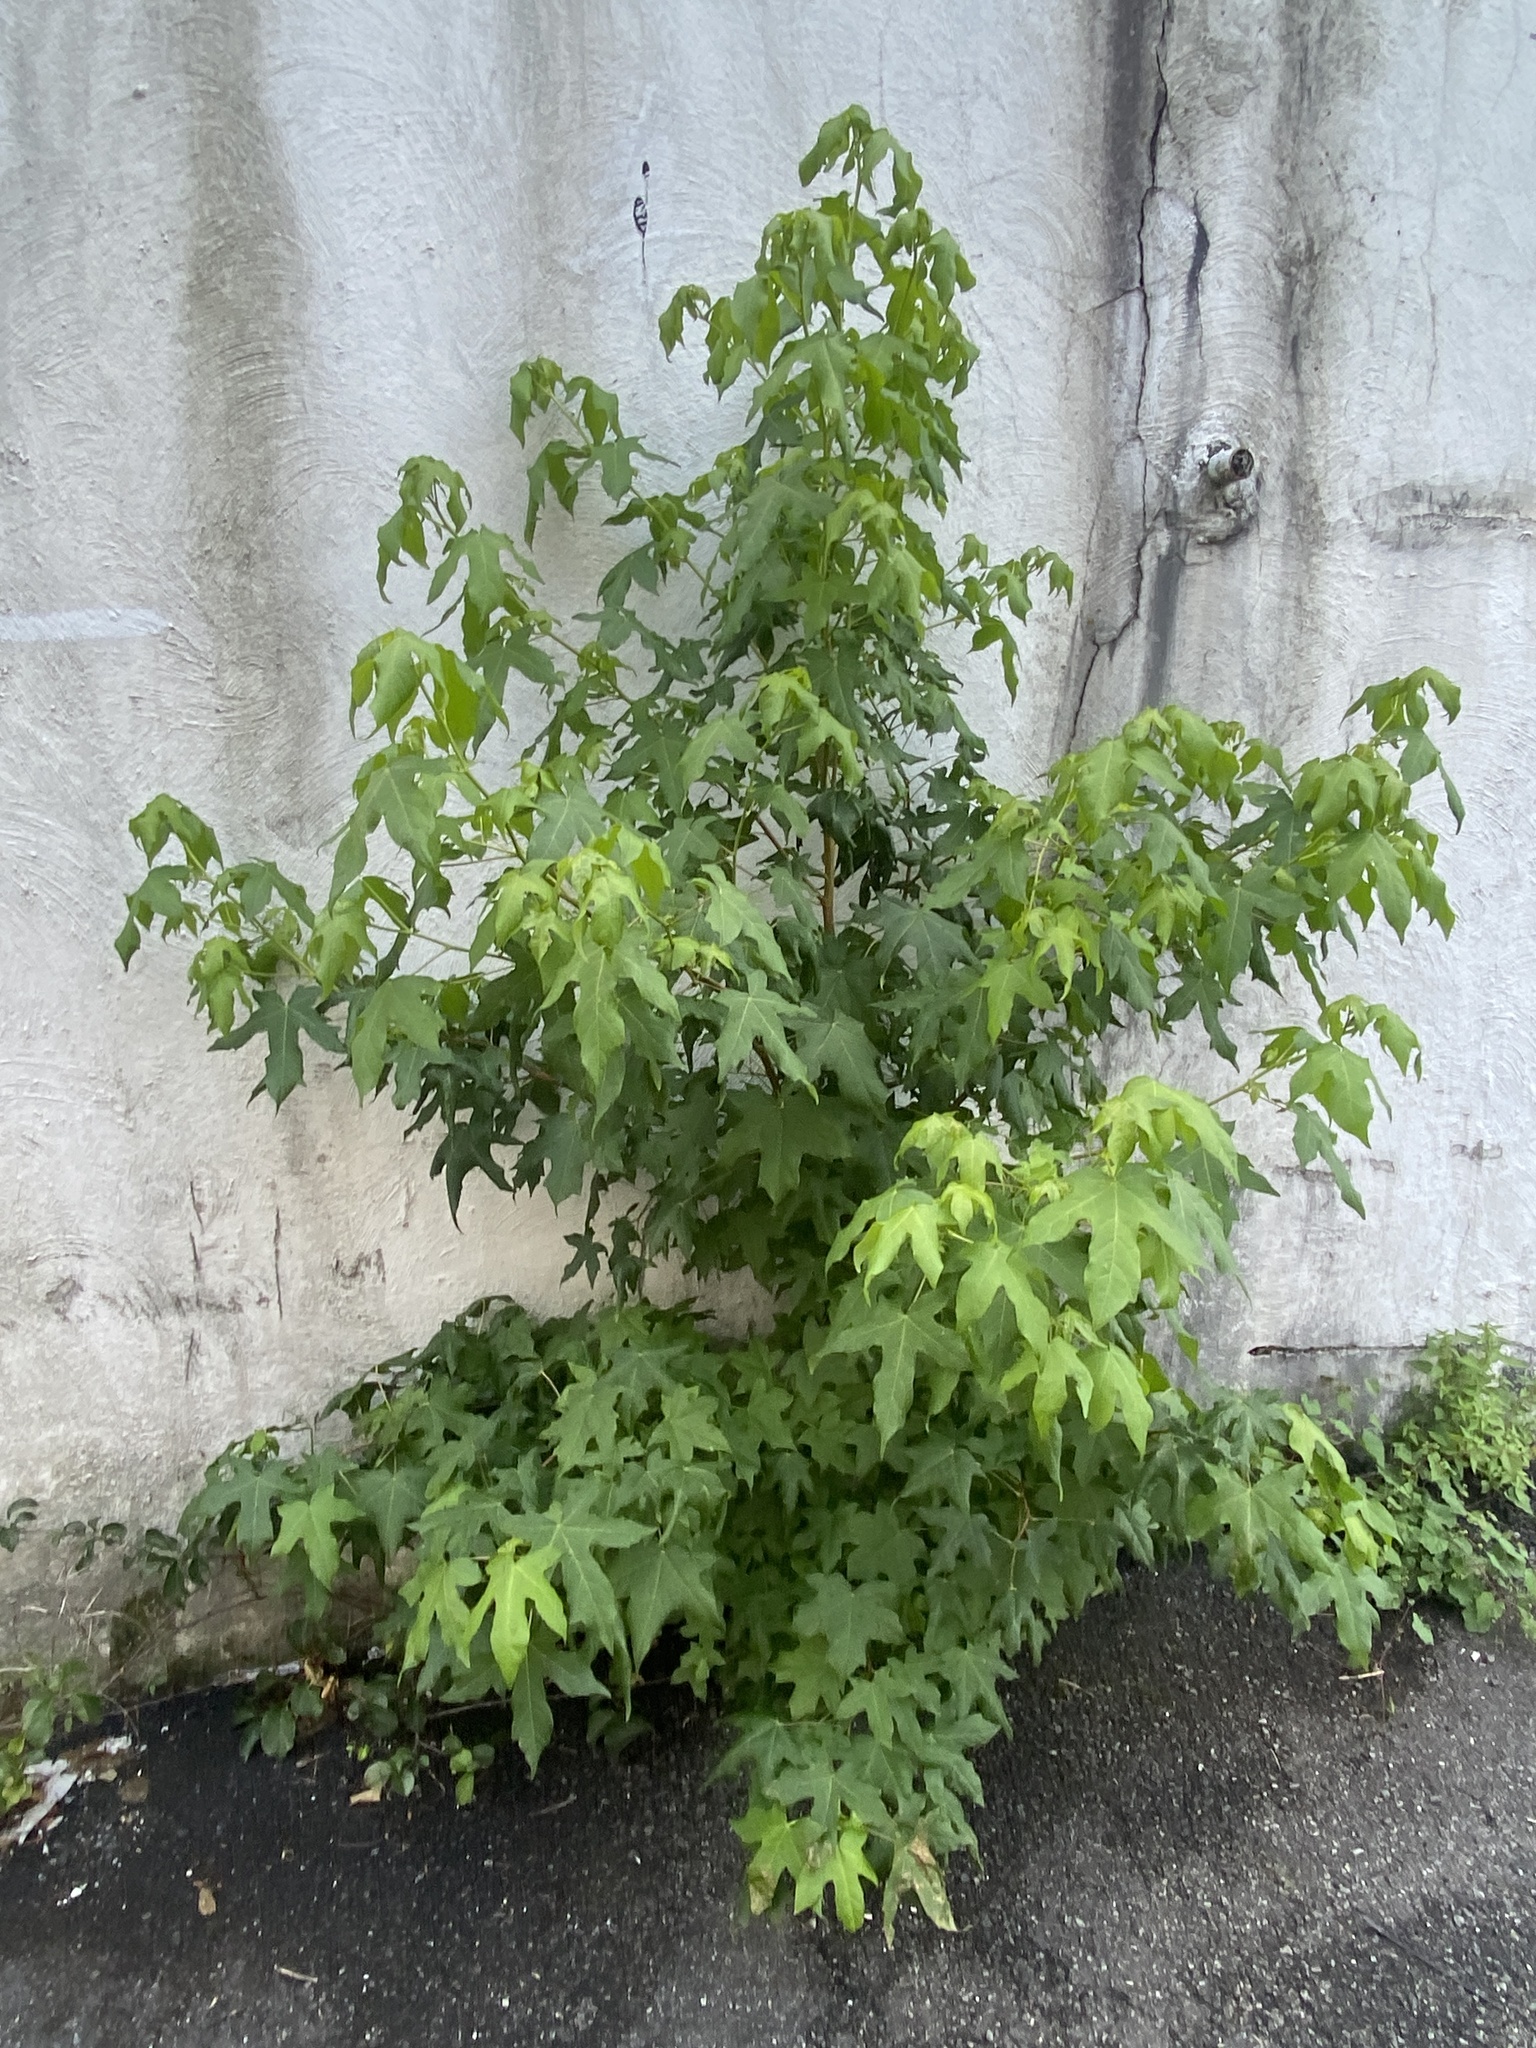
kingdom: Plantae
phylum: Tracheophyta
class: Magnoliopsida
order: Saxifragales
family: Altingiaceae
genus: Liquidambar
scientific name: Liquidambar styraciflua
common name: Sweet gum
